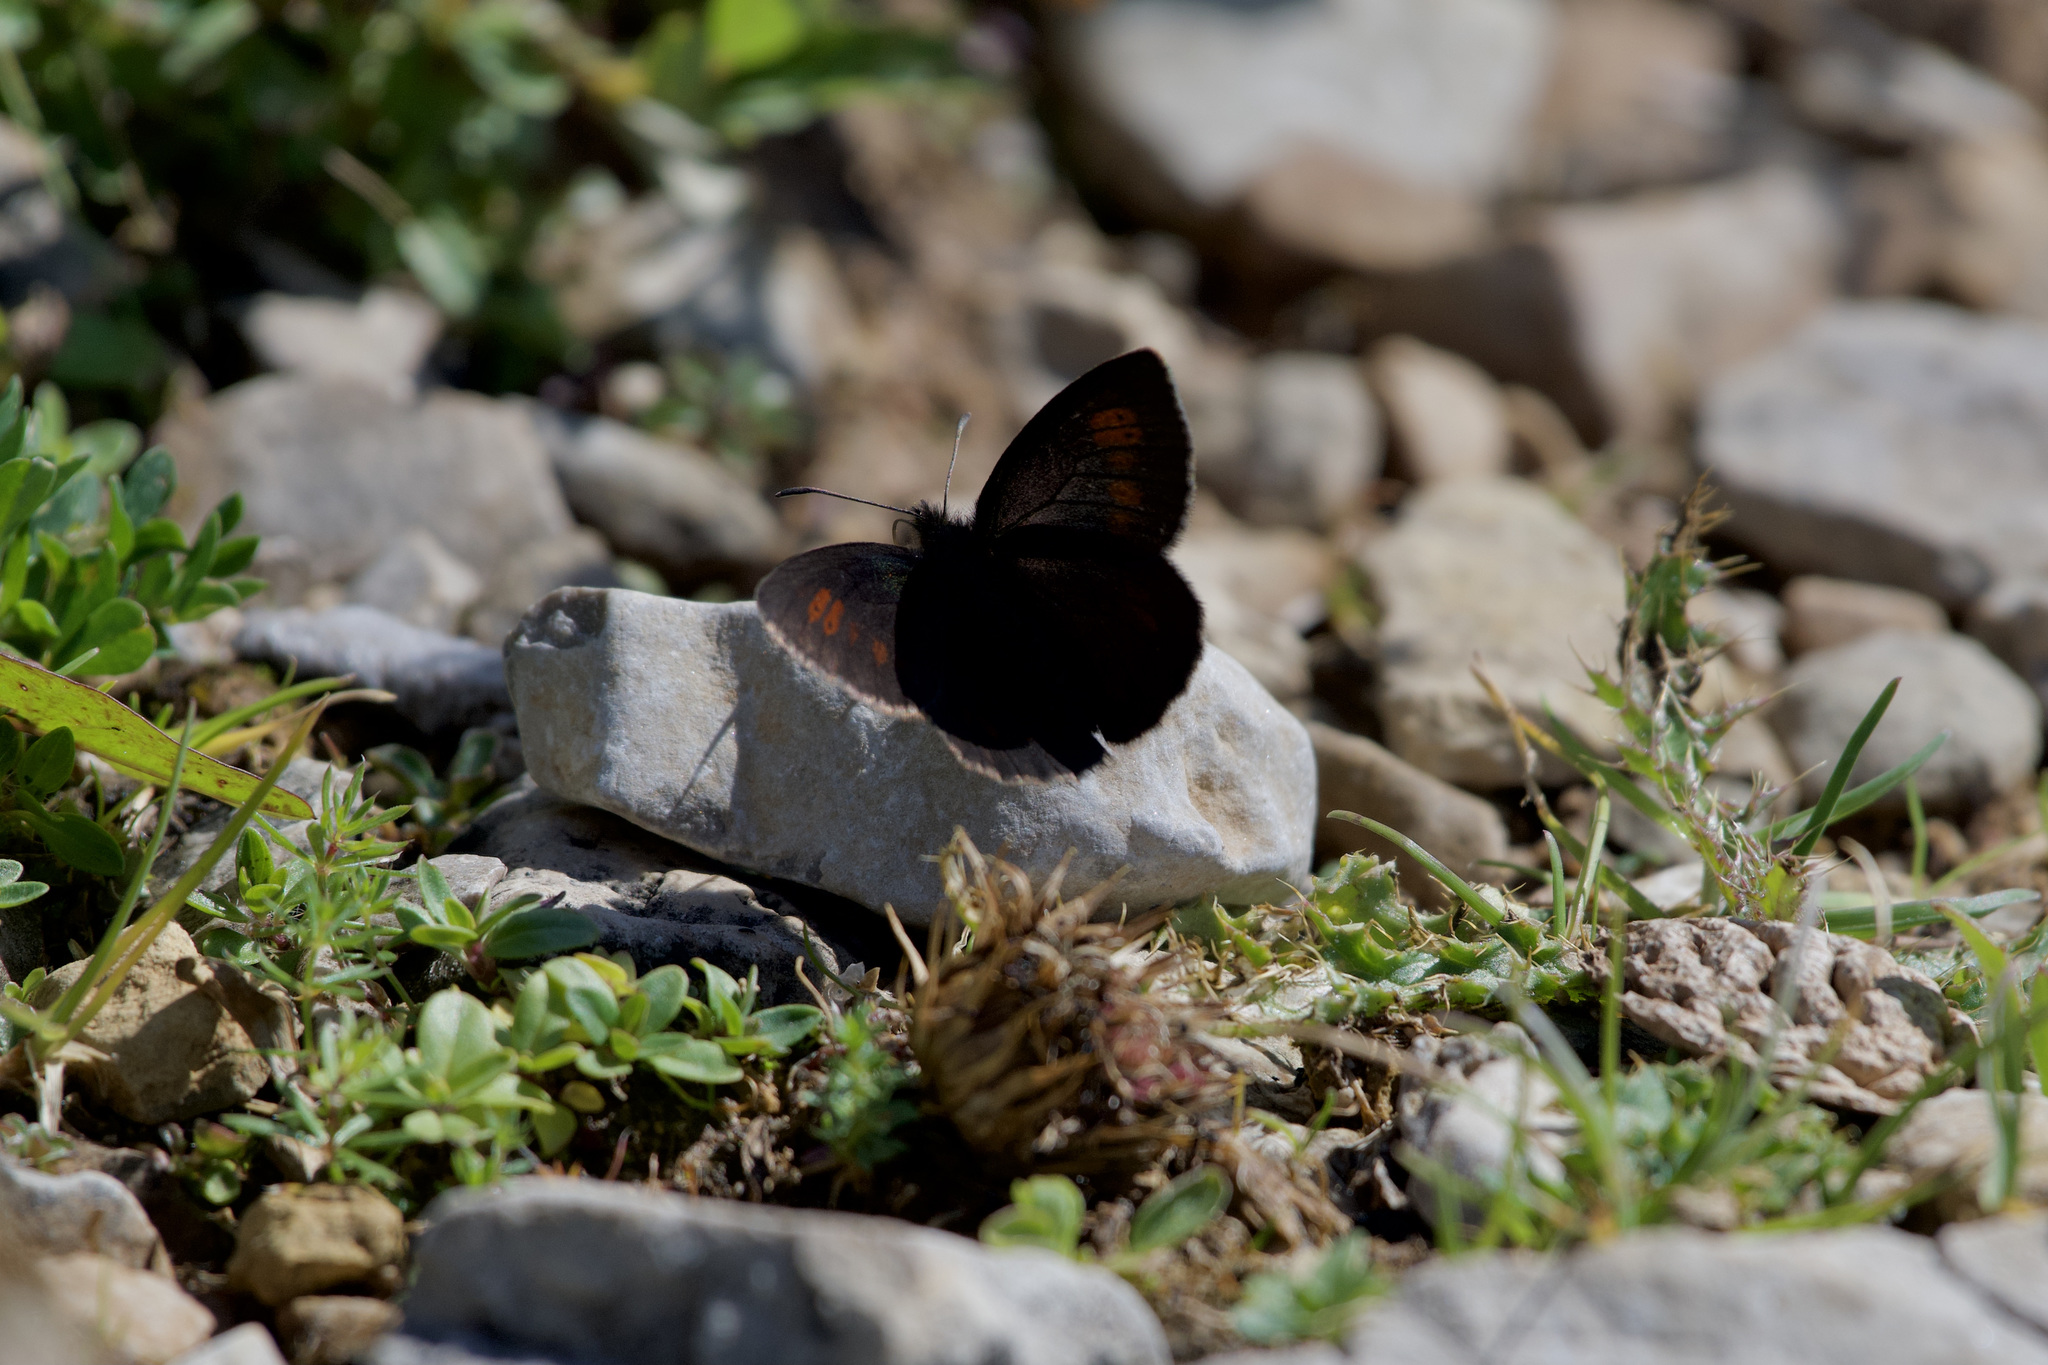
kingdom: Animalia
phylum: Arthropoda
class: Insecta
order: Lepidoptera
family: Nymphalidae
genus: Erebia
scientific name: Erebia manto
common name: Yellow-spotted ringlet
